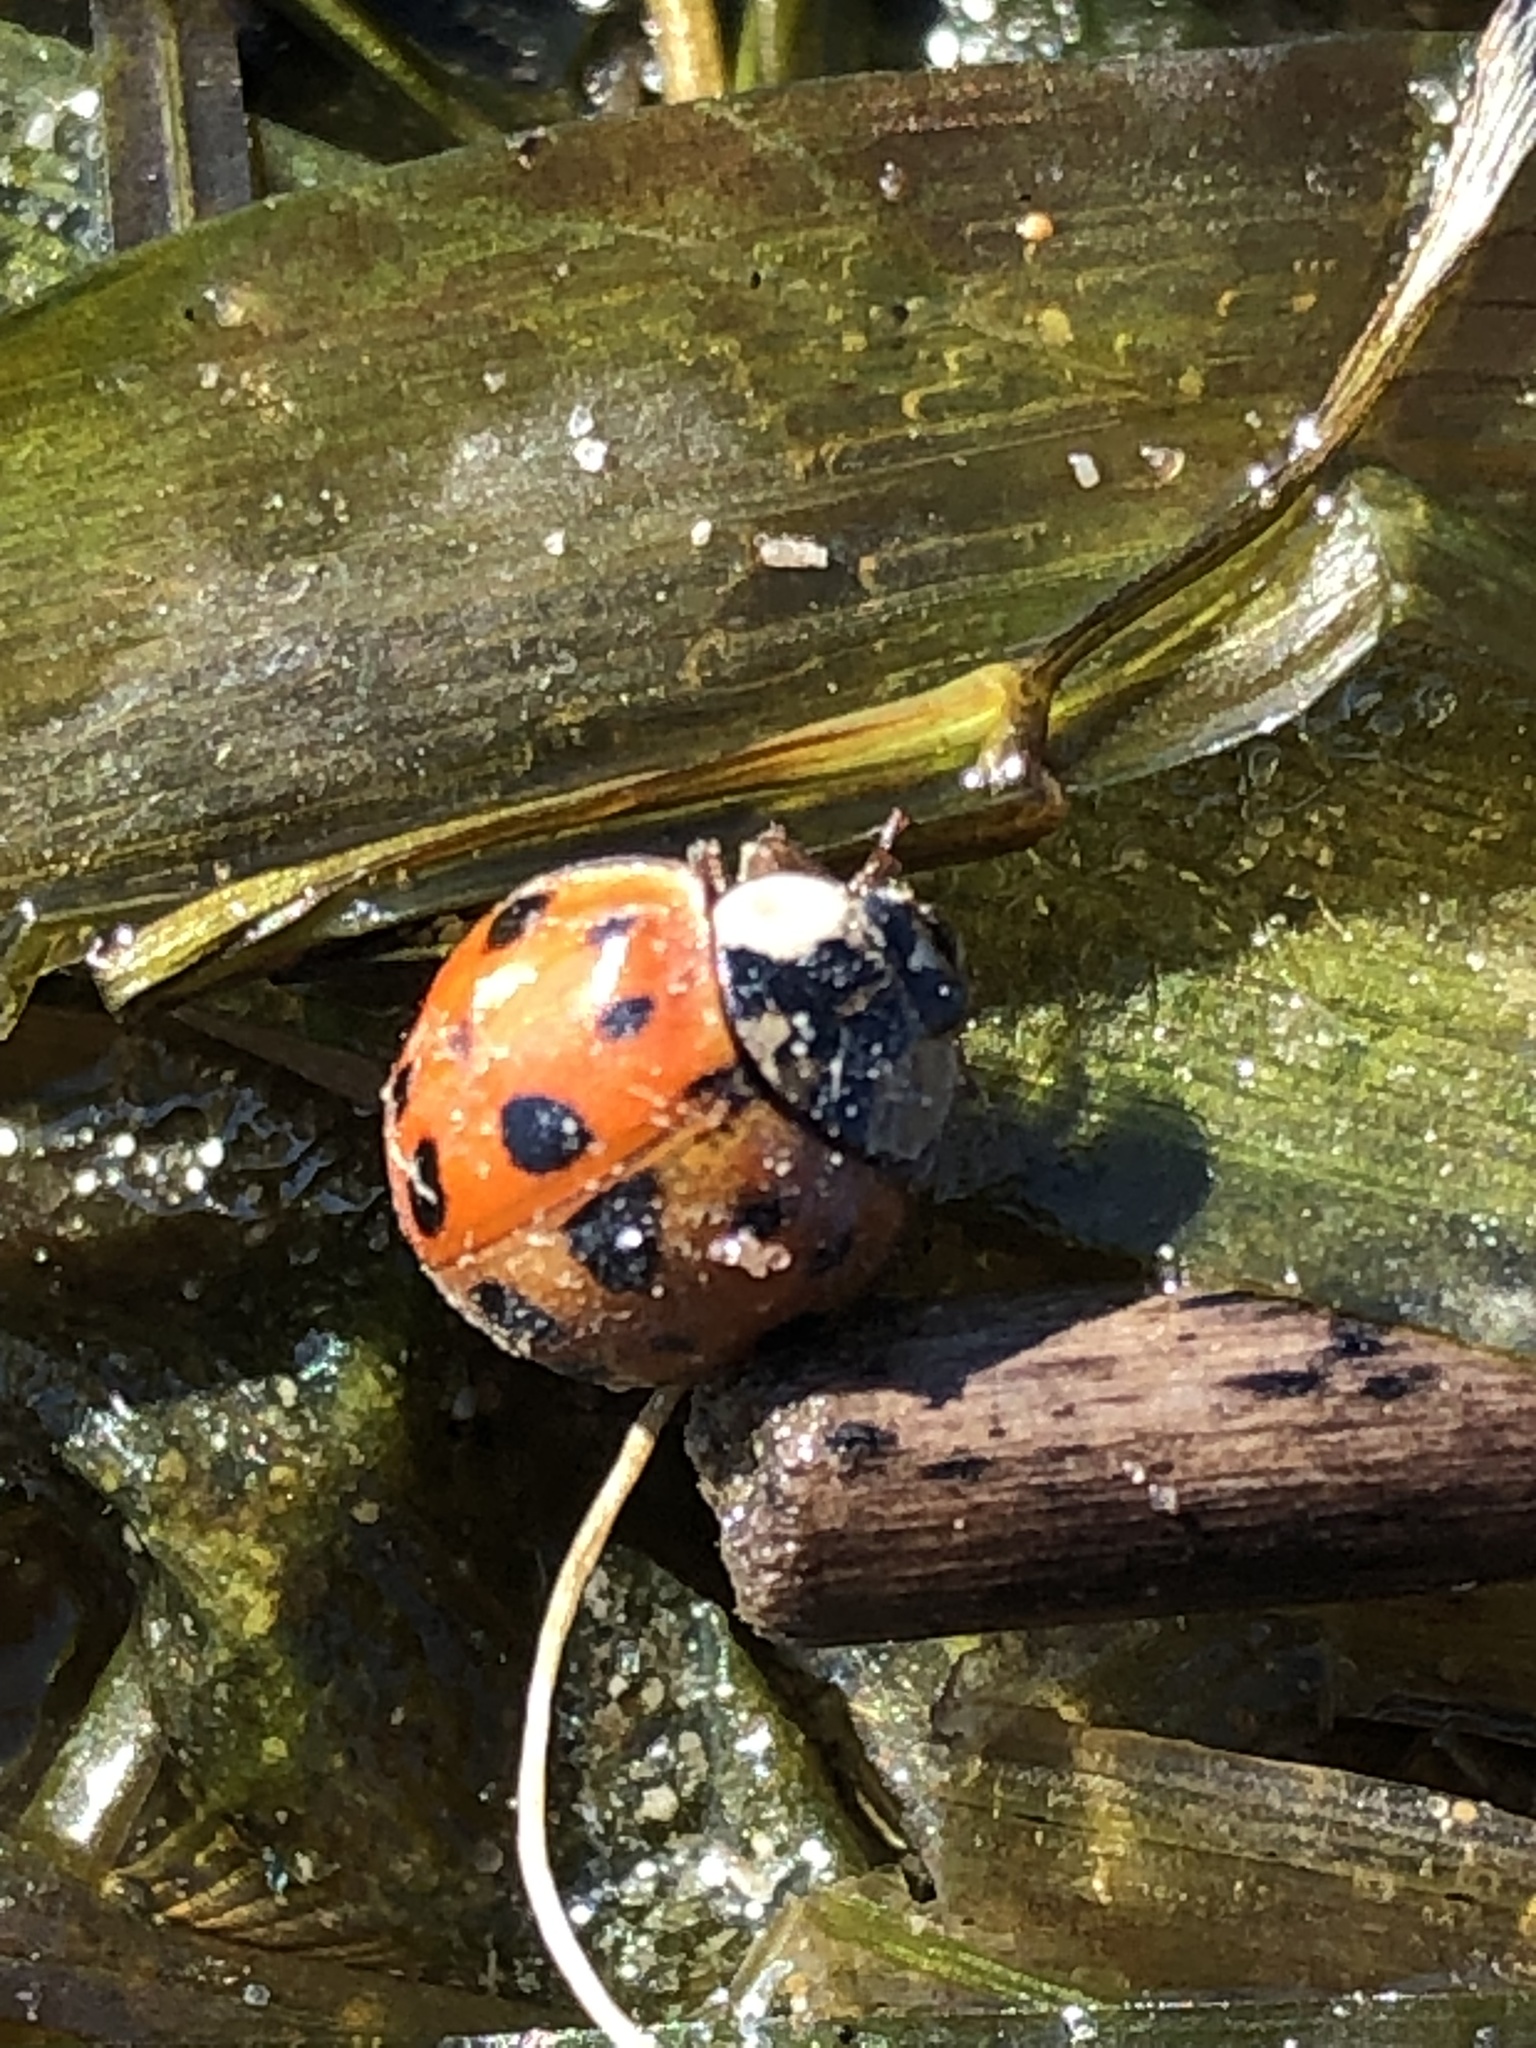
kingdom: Animalia
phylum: Arthropoda
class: Insecta
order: Coleoptera
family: Coccinellidae
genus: Harmonia
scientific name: Harmonia axyridis
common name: Harlequin ladybird
